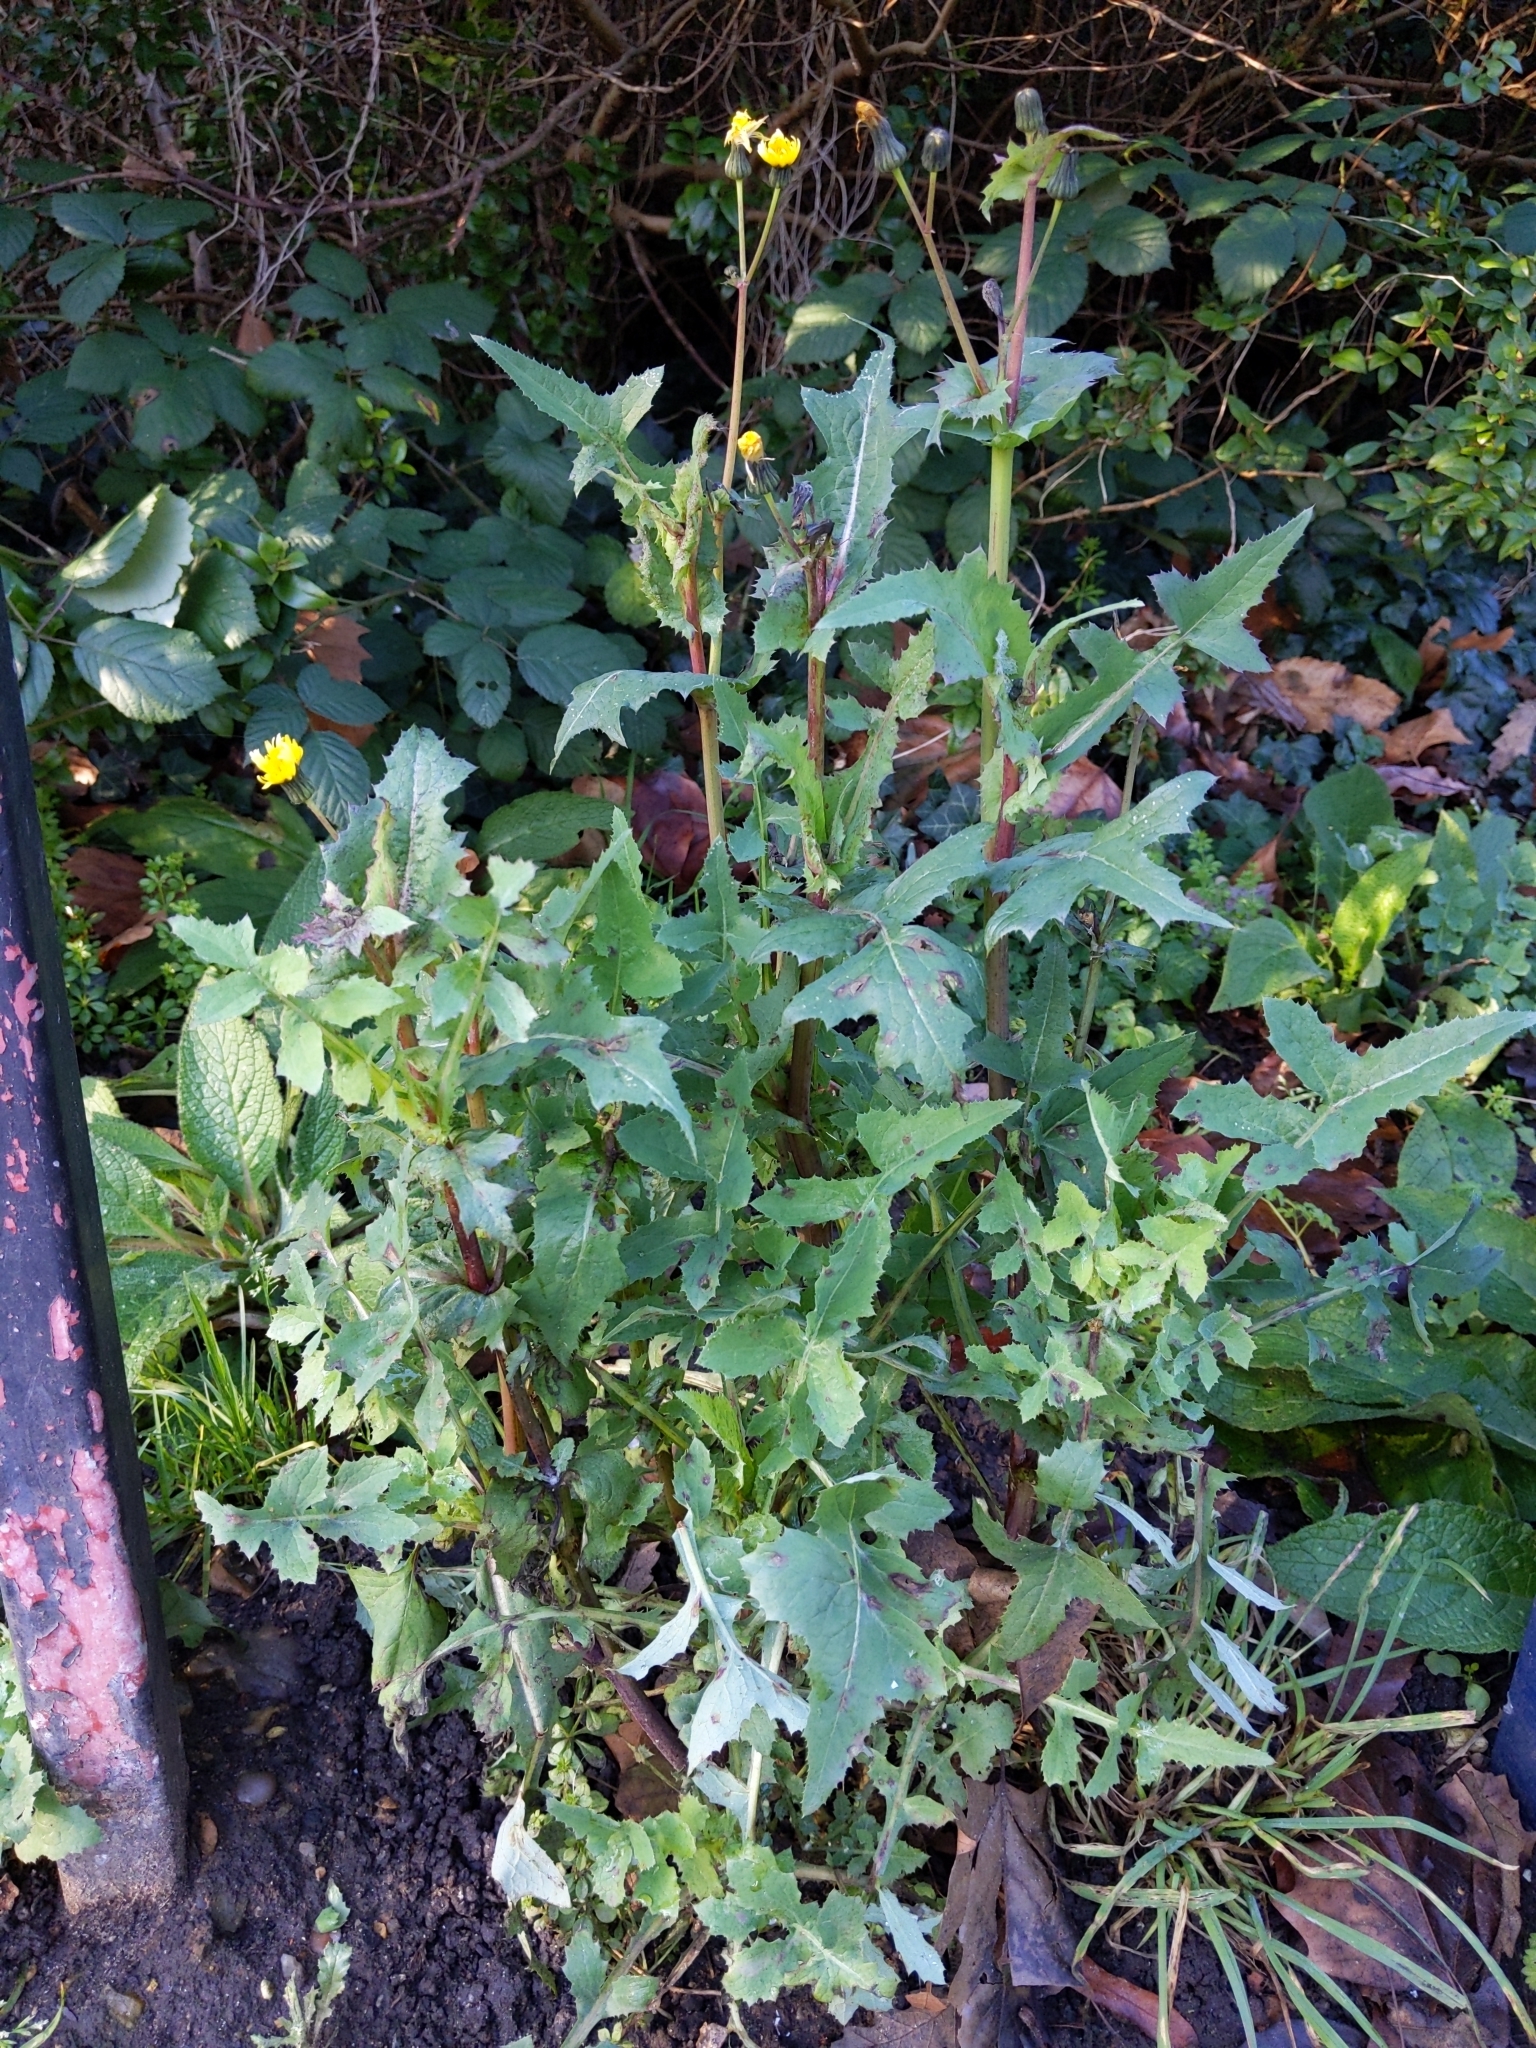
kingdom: Plantae
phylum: Tracheophyta
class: Magnoliopsida
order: Asterales
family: Asteraceae
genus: Sonchus
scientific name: Sonchus oleraceus
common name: Common sowthistle
